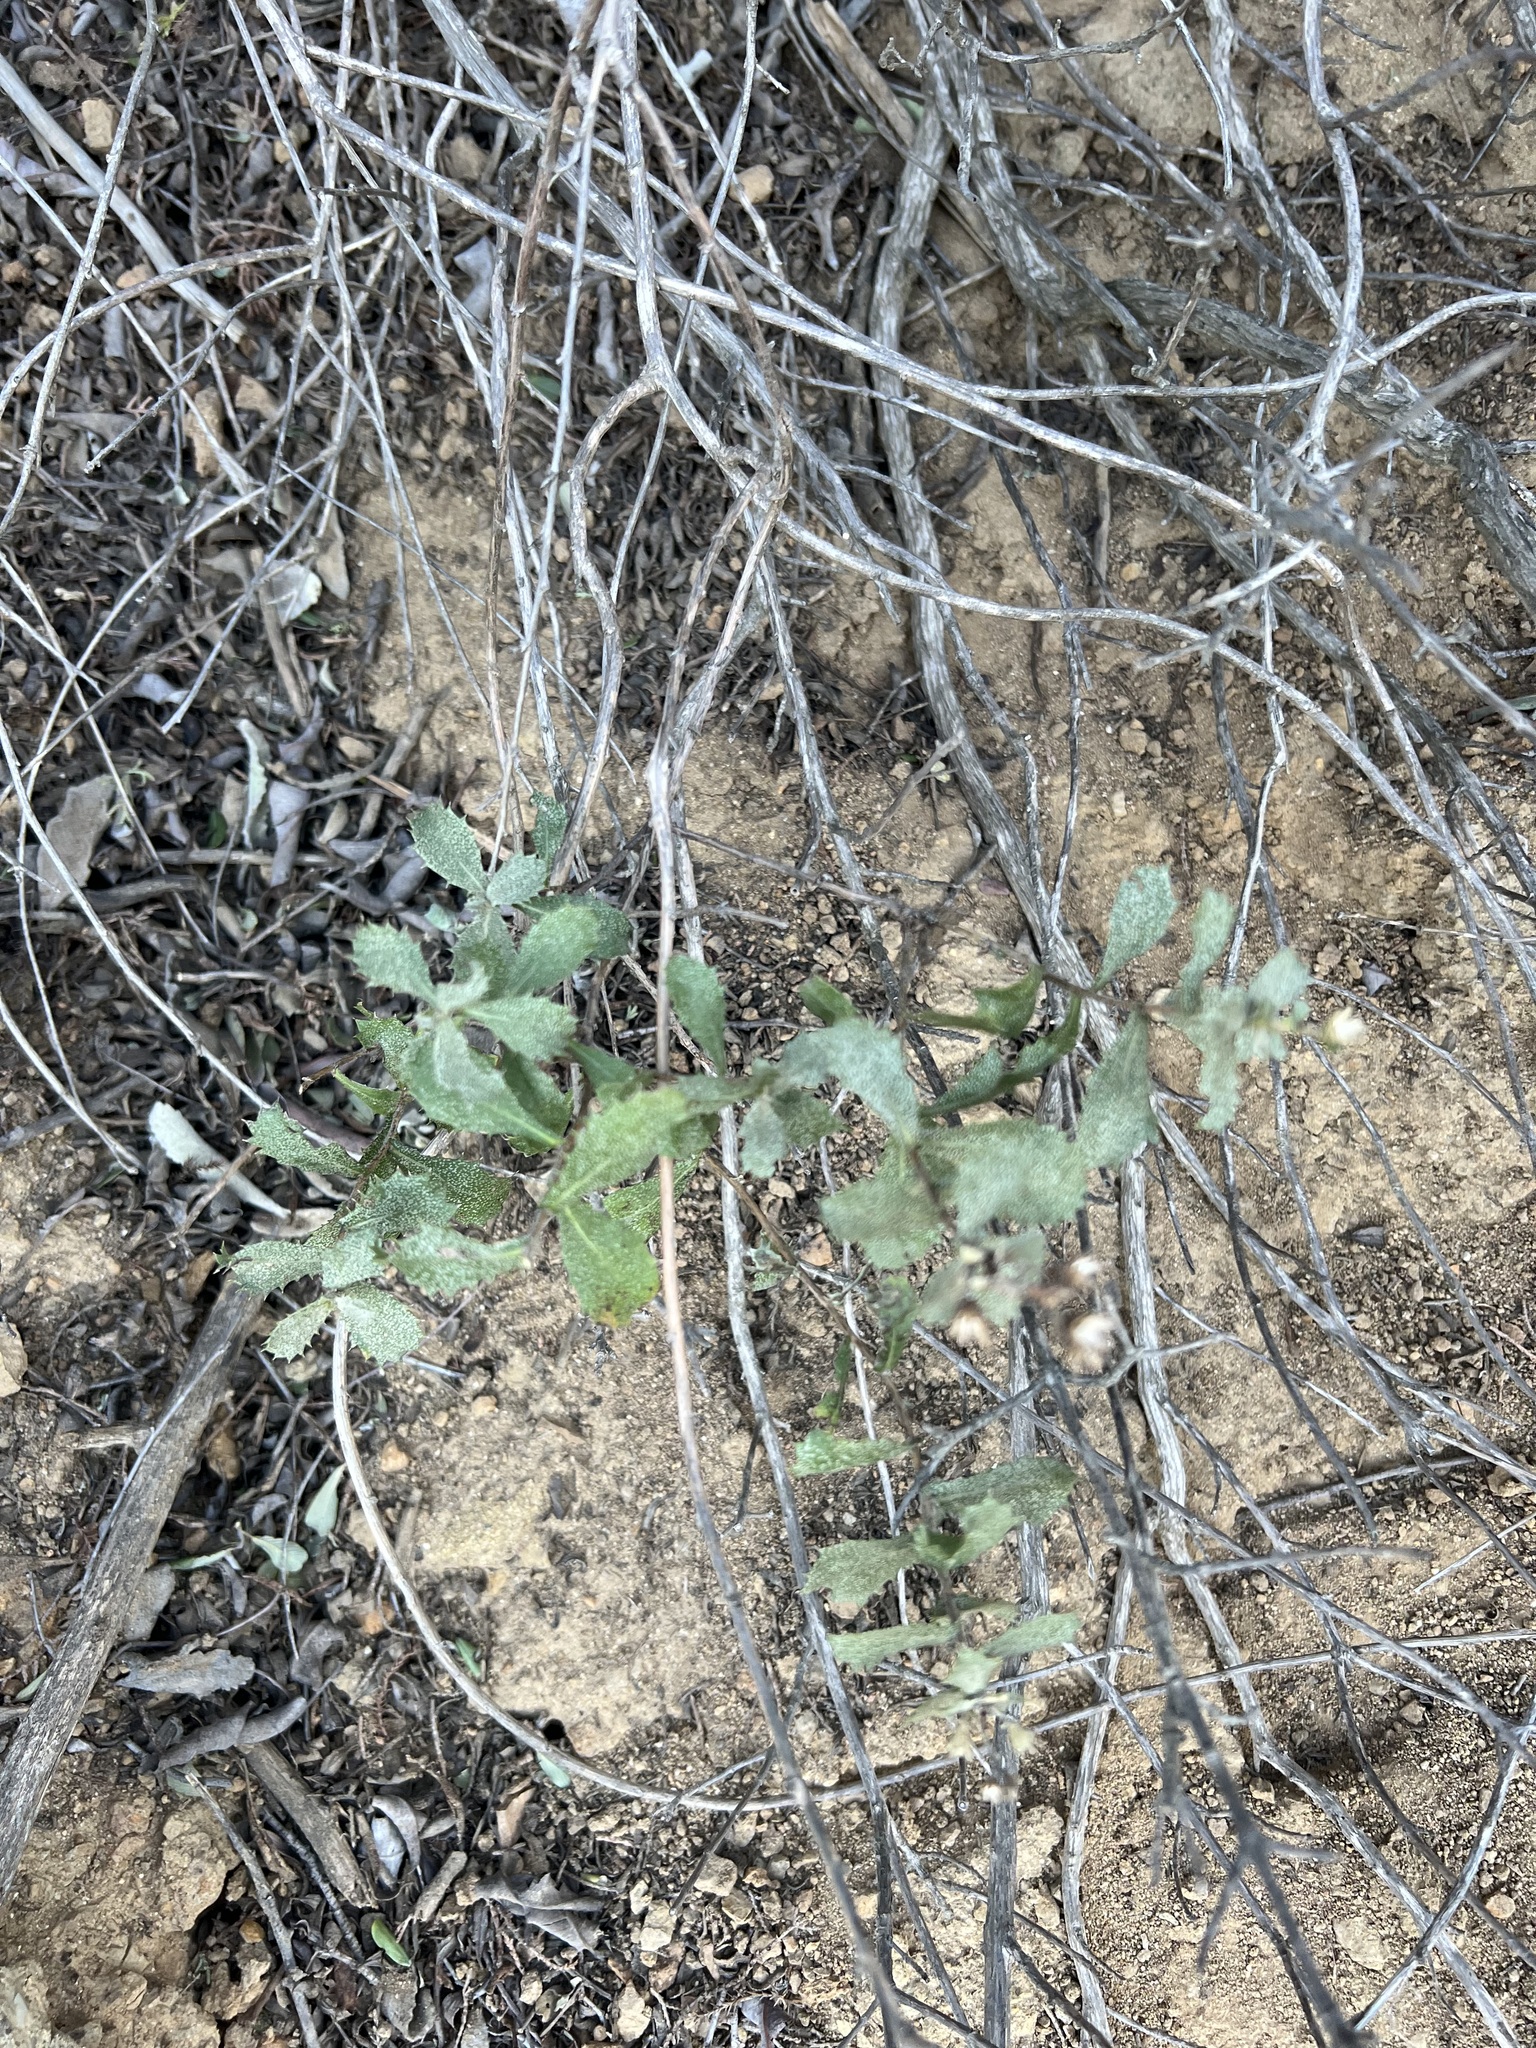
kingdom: Plantae
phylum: Tracheophyta
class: Magnoliopsida
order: Asterales
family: Asteraceae
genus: Hazardia
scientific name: Hazardia squarrosa
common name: Saw-tooth goldenbush
